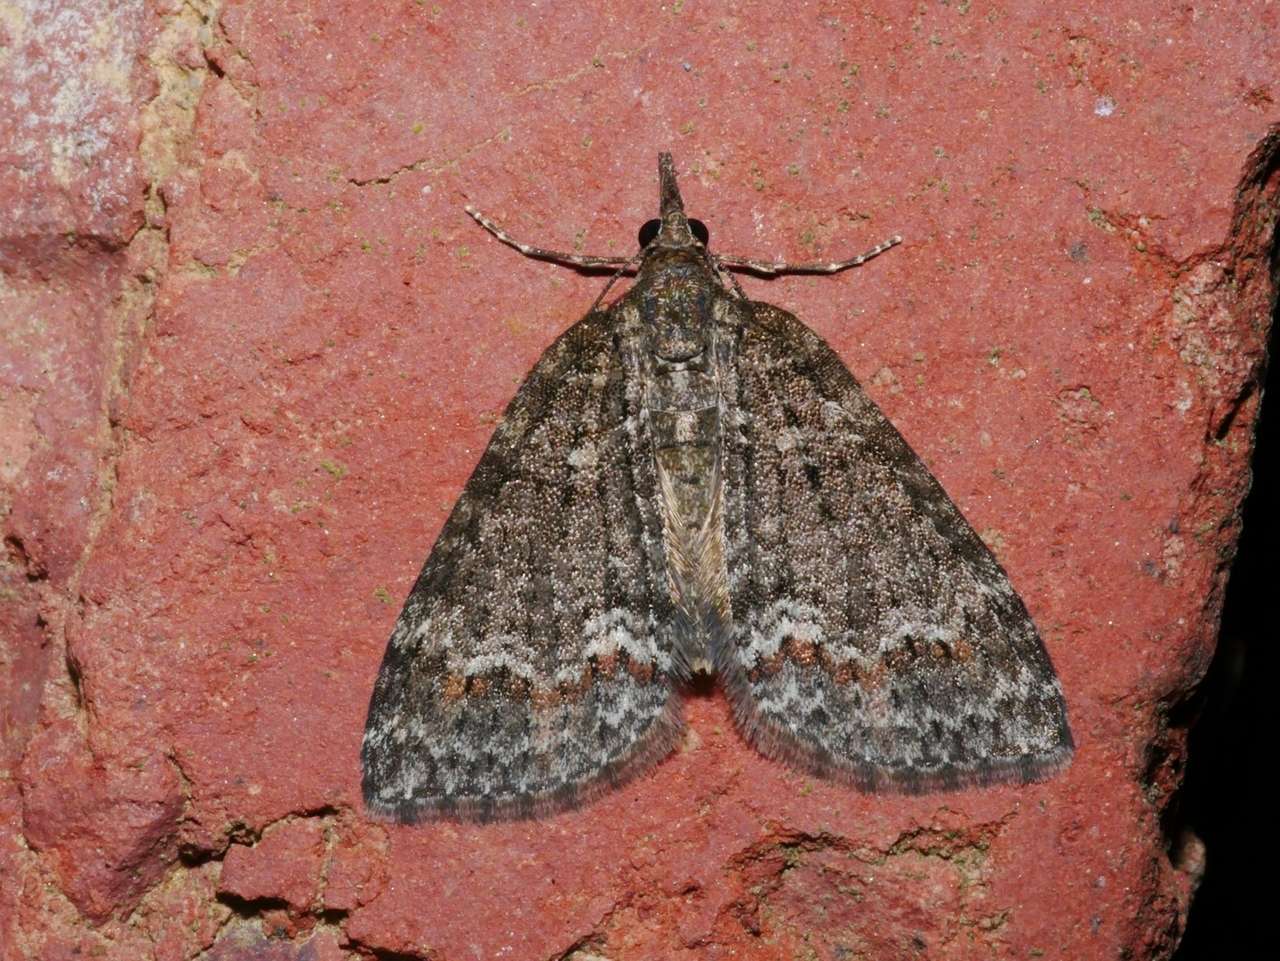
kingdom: Animalia
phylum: Arthropoda
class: Insecta
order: Lepidoptera
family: Geometridae
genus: Microdes
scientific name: Microdes squamulata
